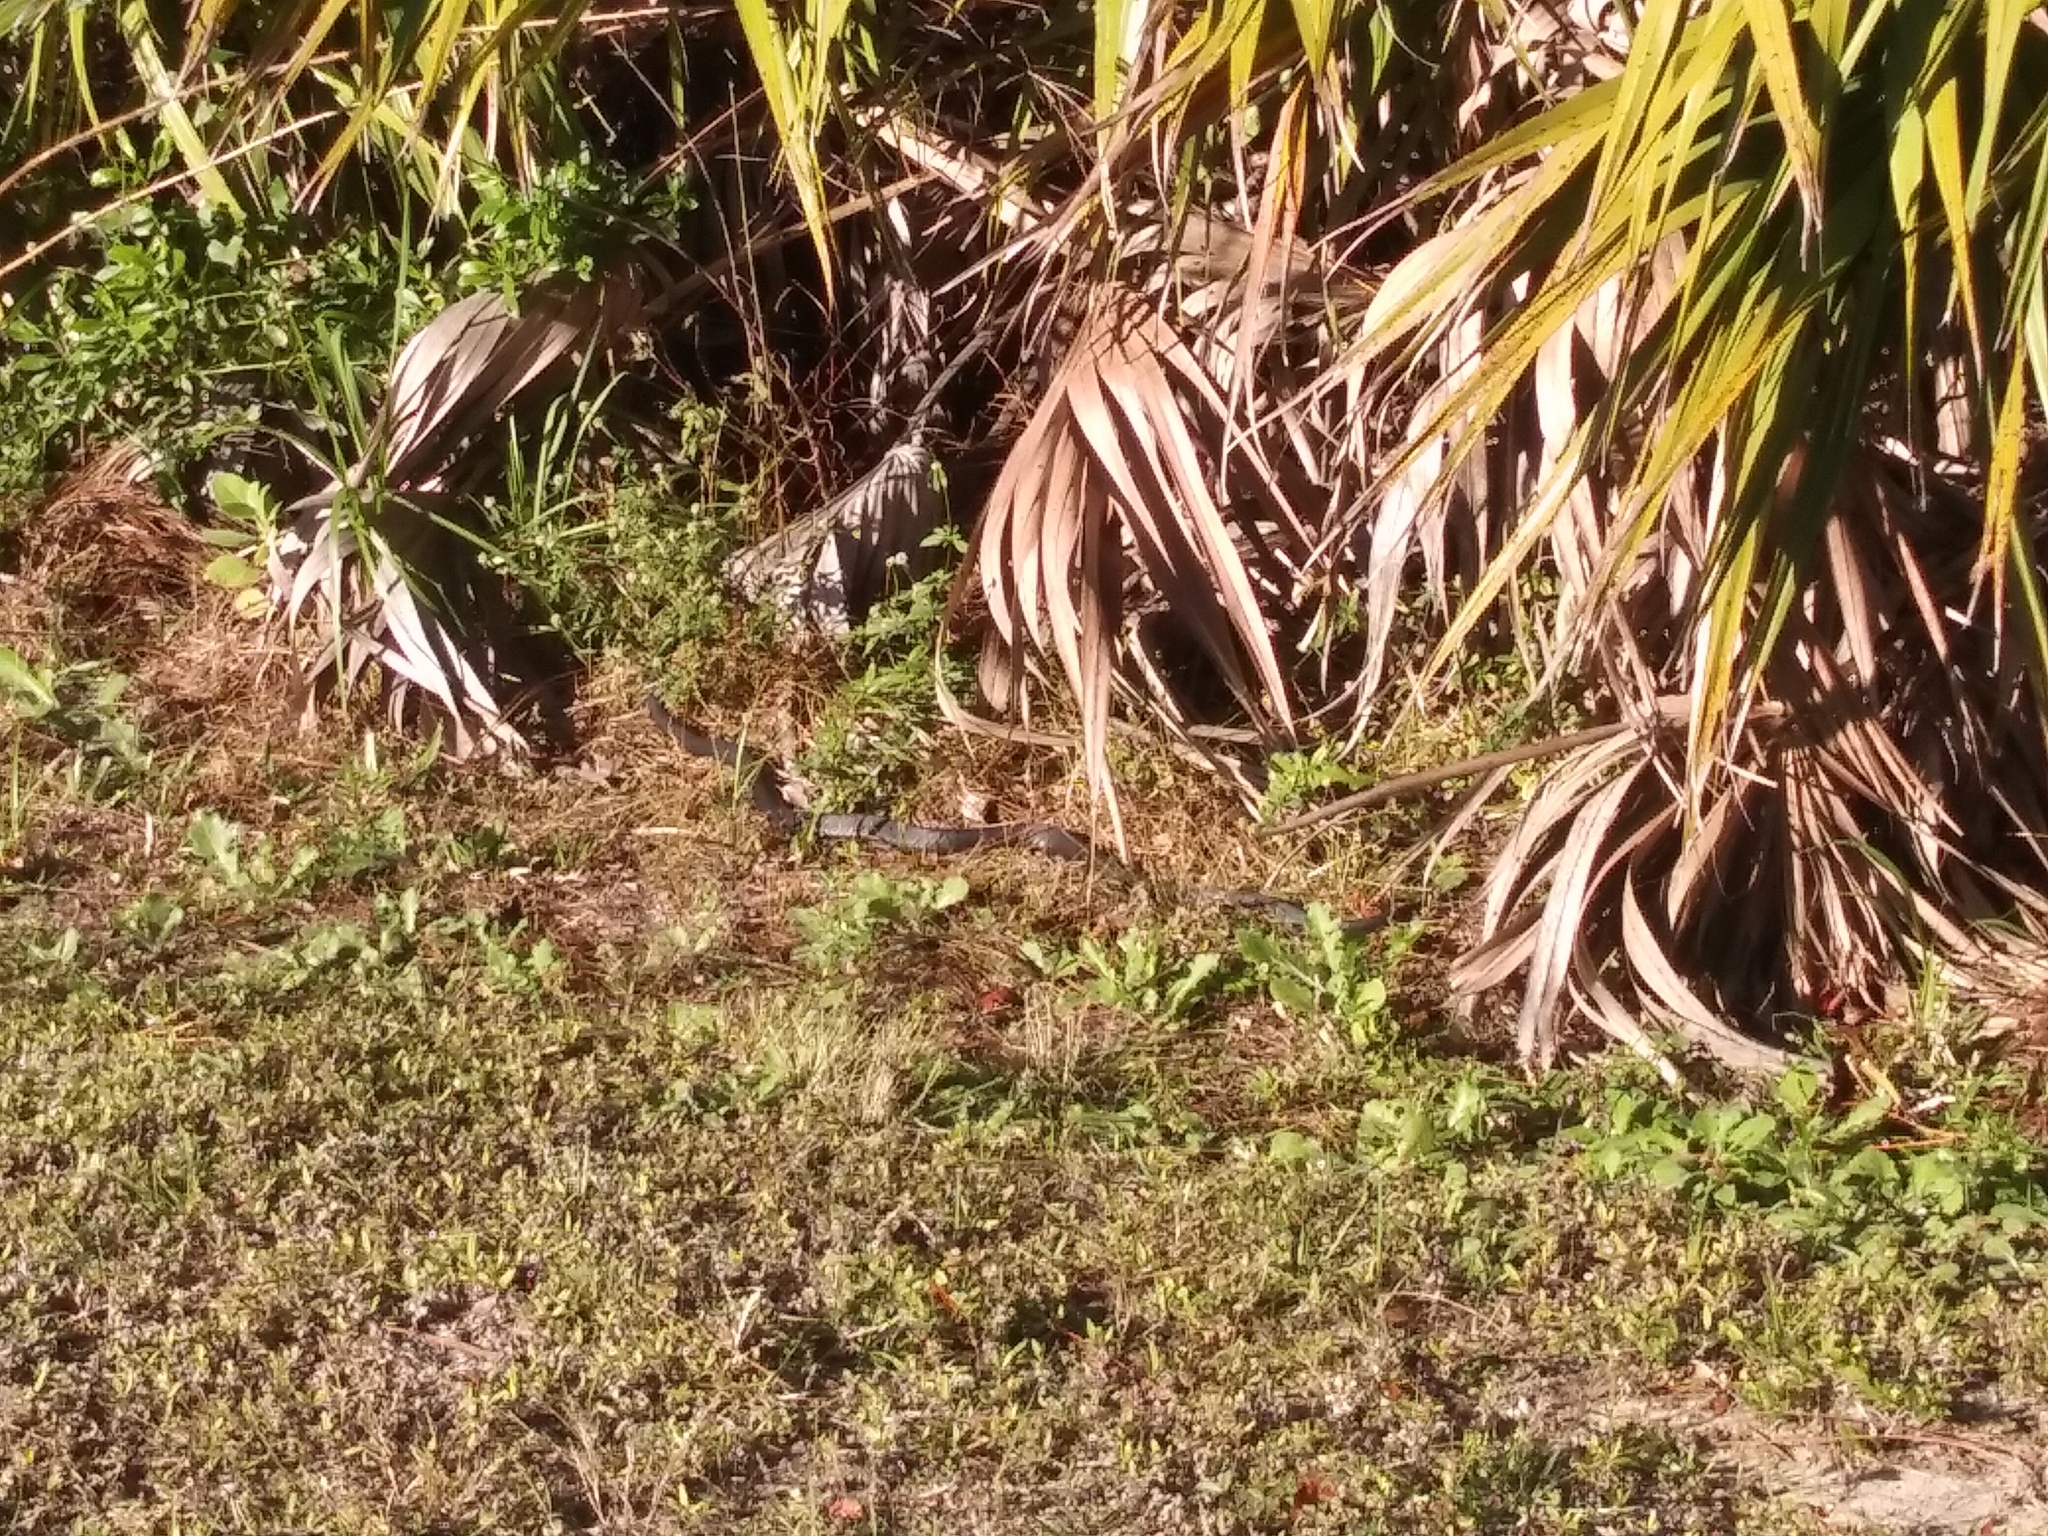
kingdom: Animalia
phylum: Chordata
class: Squamata
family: Colubridae
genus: Coluber
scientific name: Coluber constrictor
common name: Eastern racer
